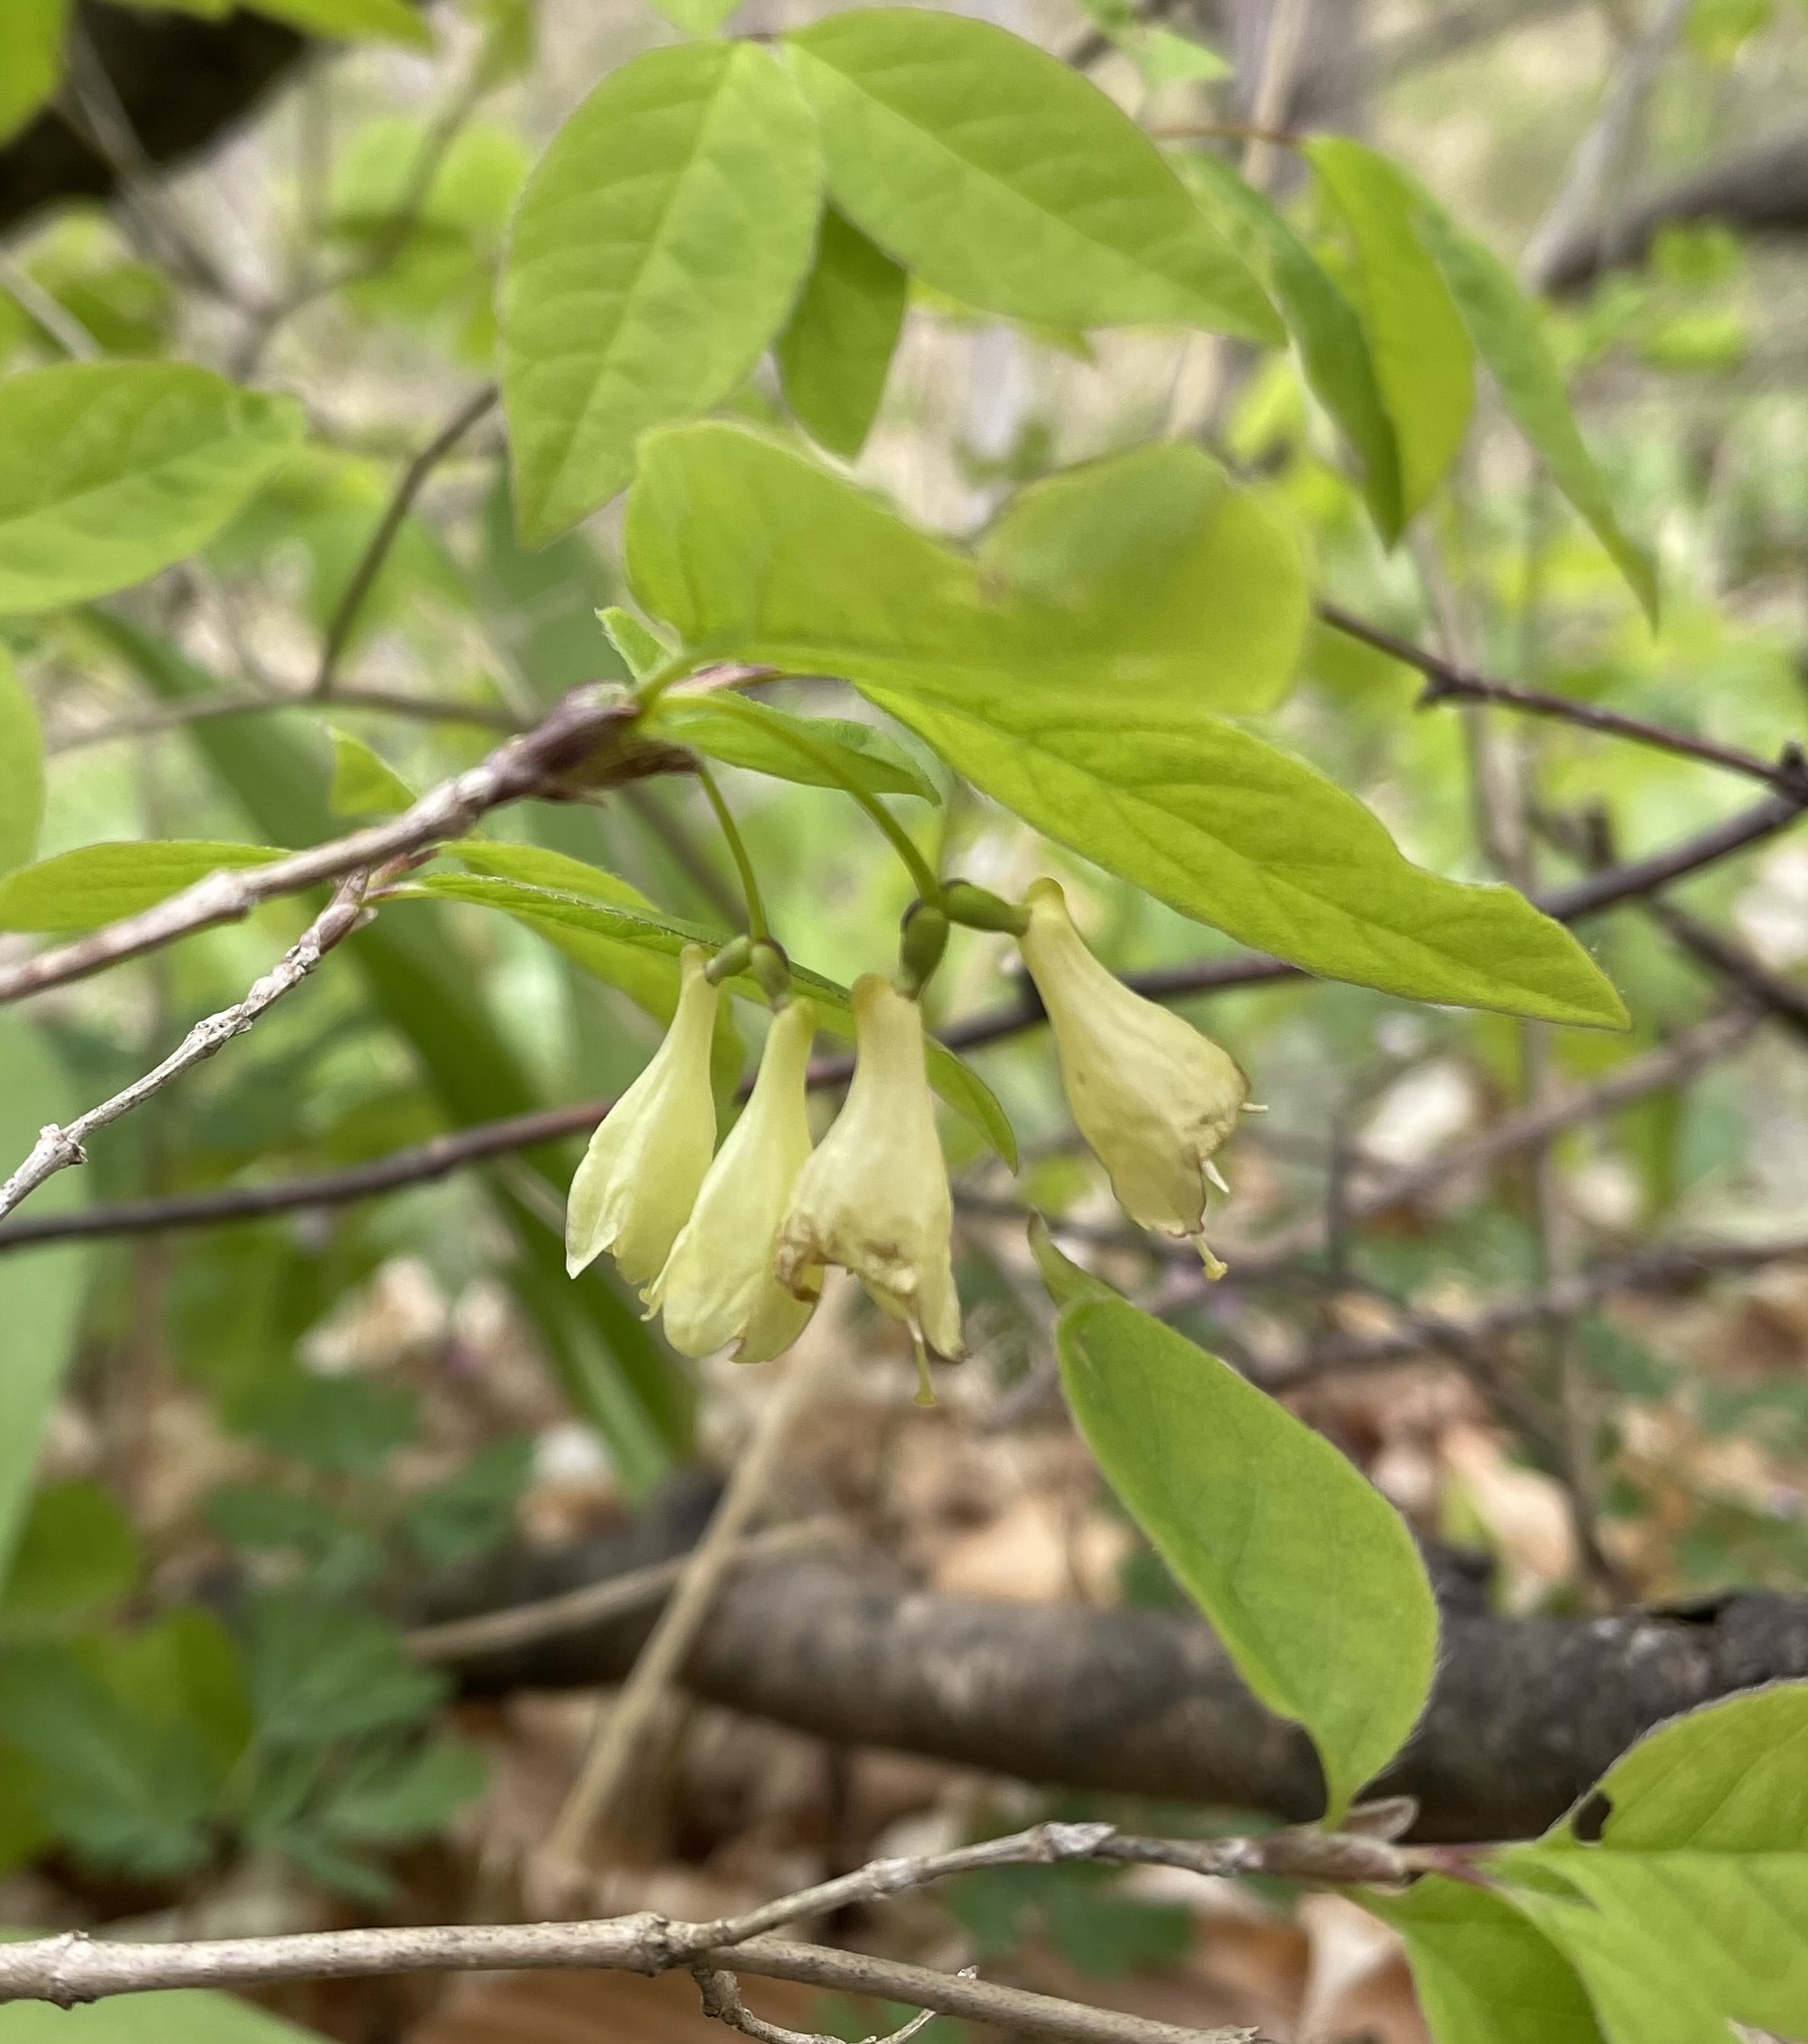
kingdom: Plantae
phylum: Tracheophyta
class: Magnoliopsida
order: Dipsacales
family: Caprifoliaceae
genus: Lonicera
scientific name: Lonicera canadensis
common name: American fly-honeysuckle
